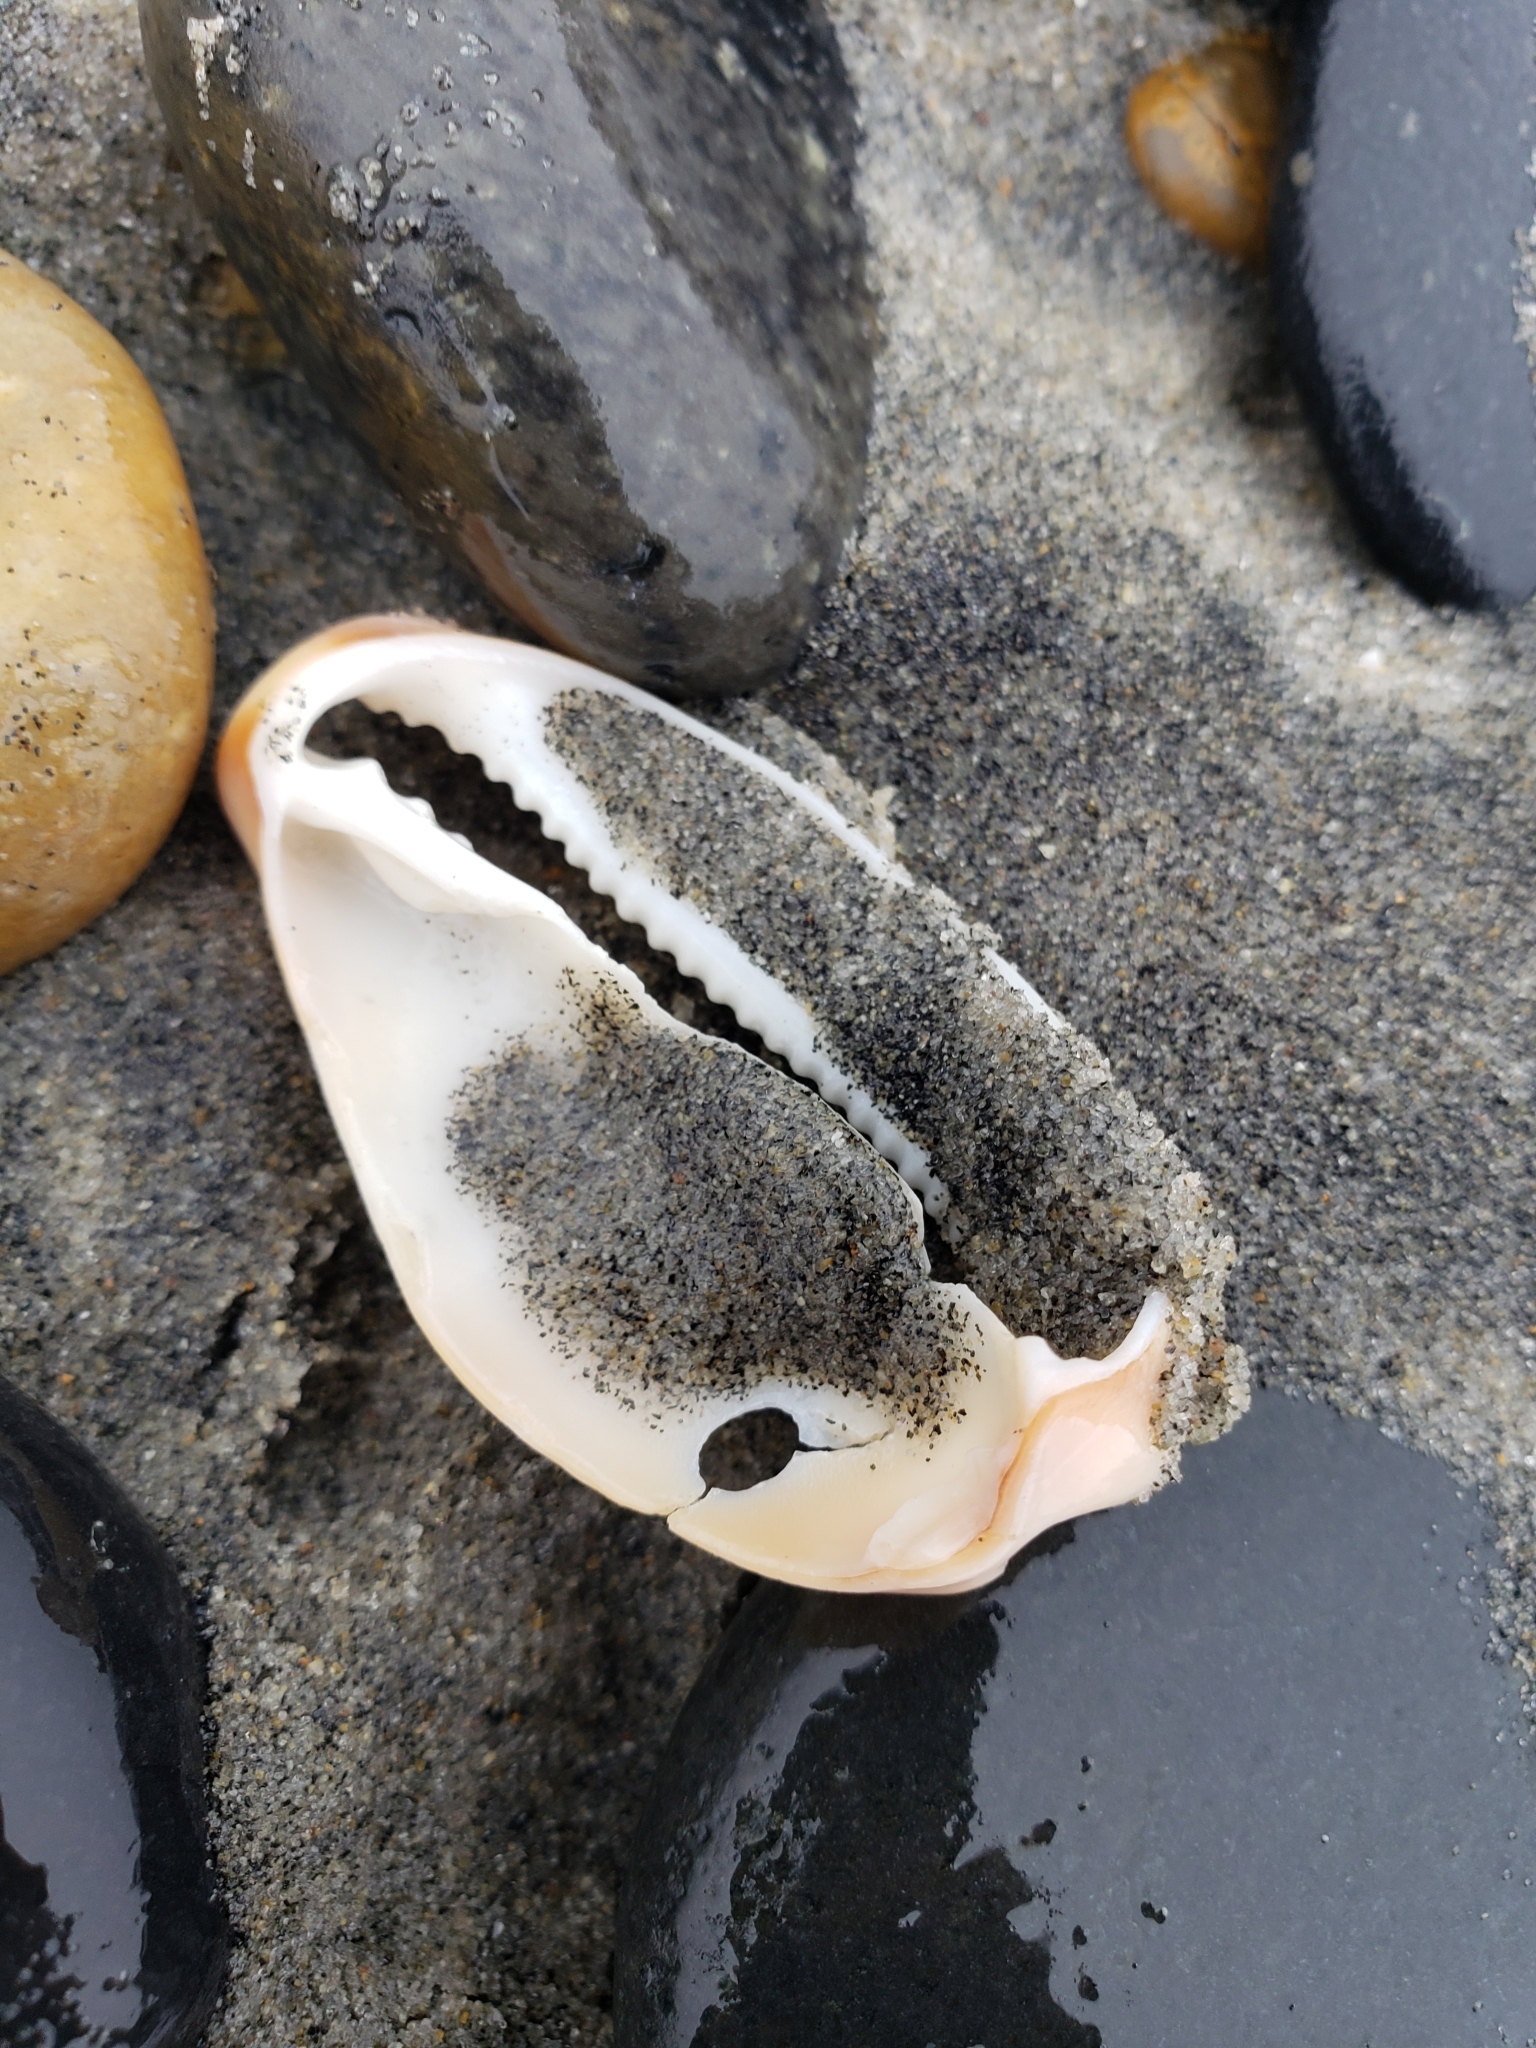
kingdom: Animalia
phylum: Mollusca
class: Gastropoda
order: Littorinimorpha
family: Cypraeidae
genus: Neobernaya
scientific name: Neobernaya spadicea
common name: Chestnut cowrie
